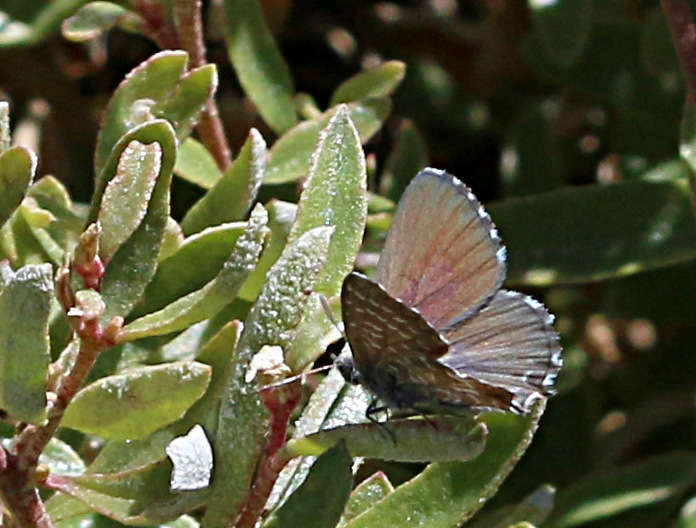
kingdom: Animalia
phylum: Arthropoda
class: Insecta
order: Lepidoptera
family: Lycaenidae
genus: Theclinesthes
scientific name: Theclinesthes serpentata
